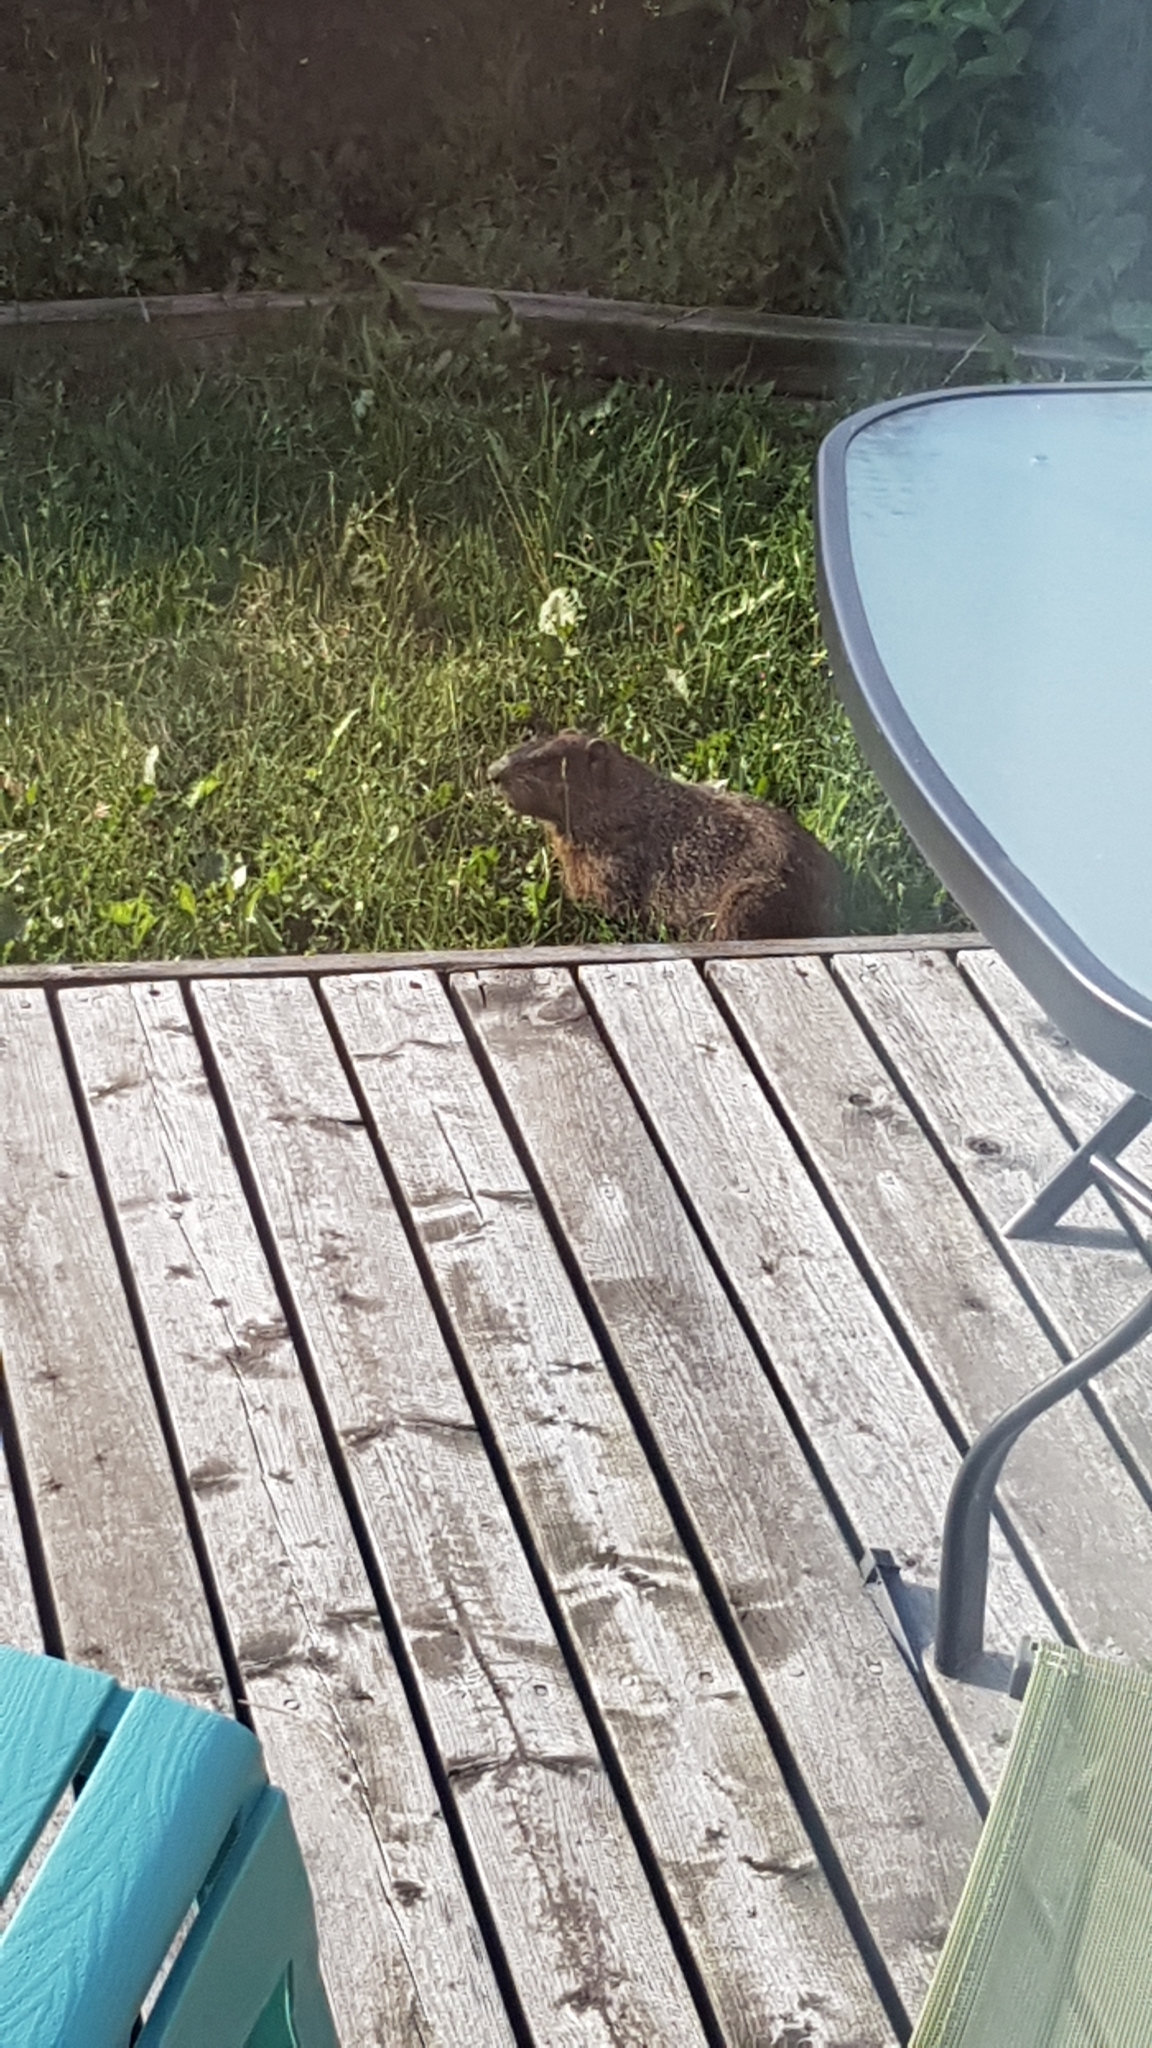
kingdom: Animalia
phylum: Chordata
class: Mammalia
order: Rodentia
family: Sciuridae
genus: Marmota
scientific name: Marmota monax
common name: Groundhog
